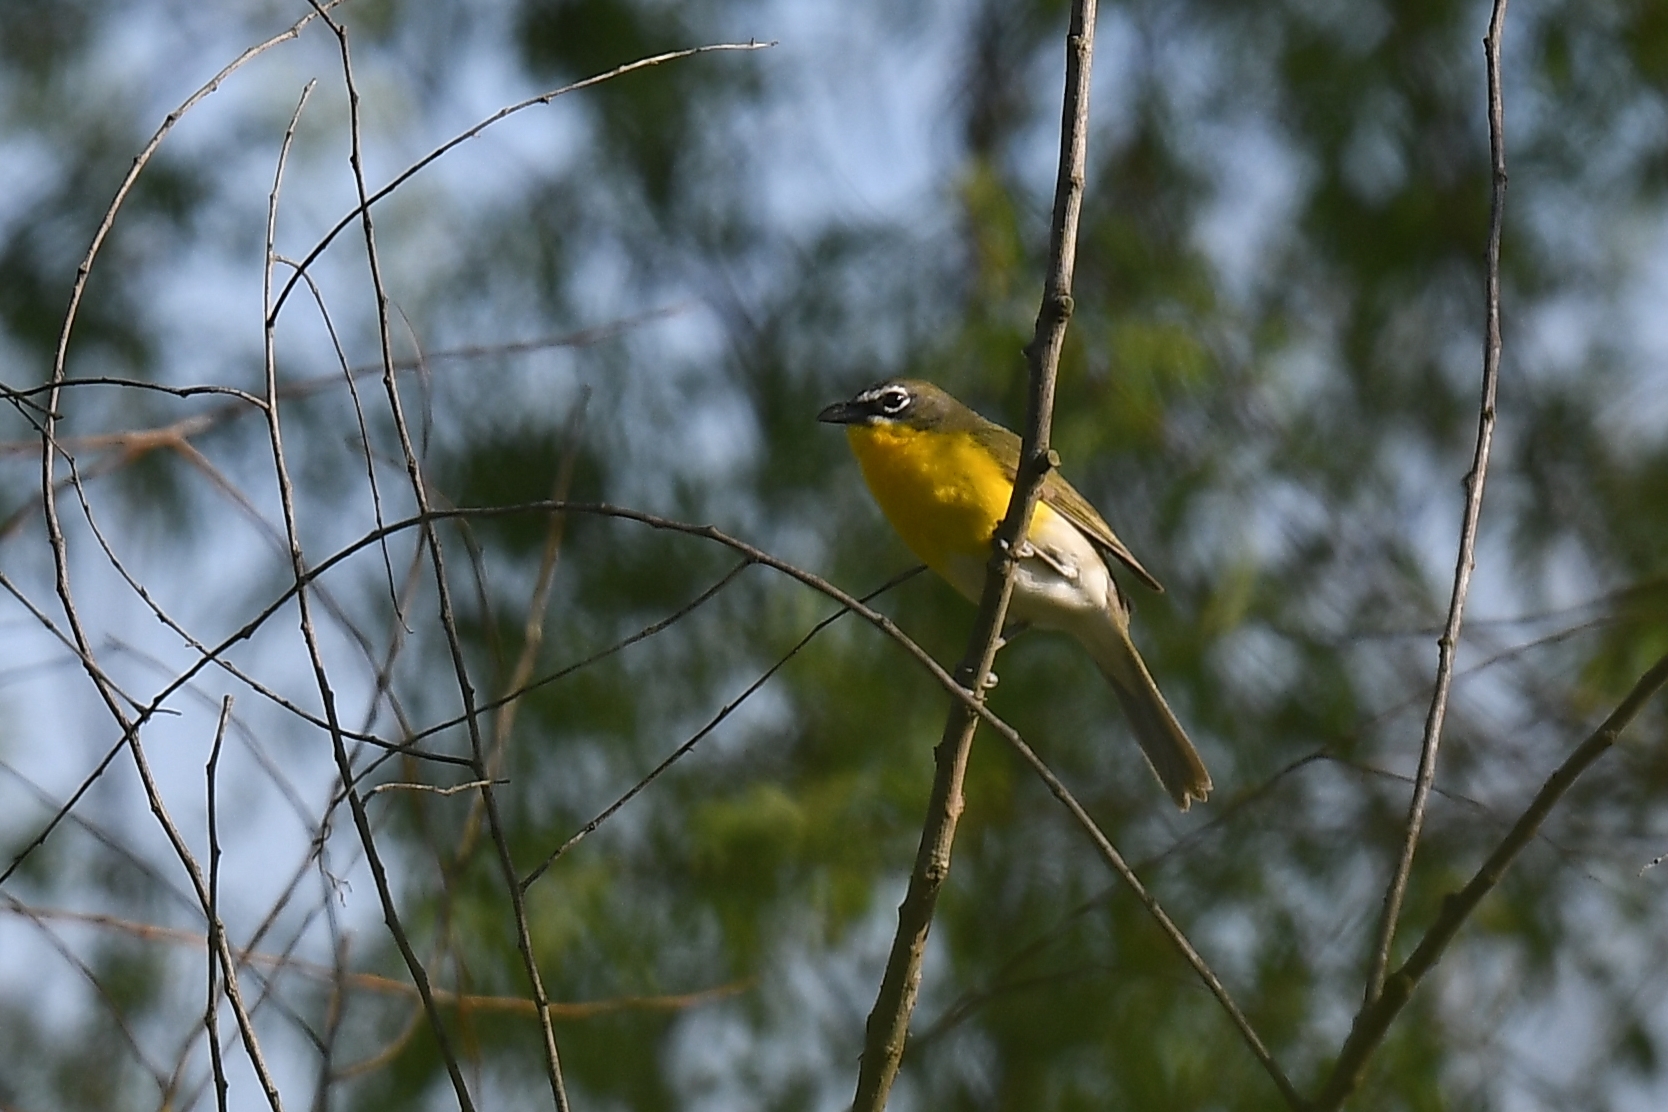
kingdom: Animalia
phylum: Chordata
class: Aves
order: Passeriformes
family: Parulidae
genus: Icteria
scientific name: Icteria virens
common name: Yellow-breasted chat
